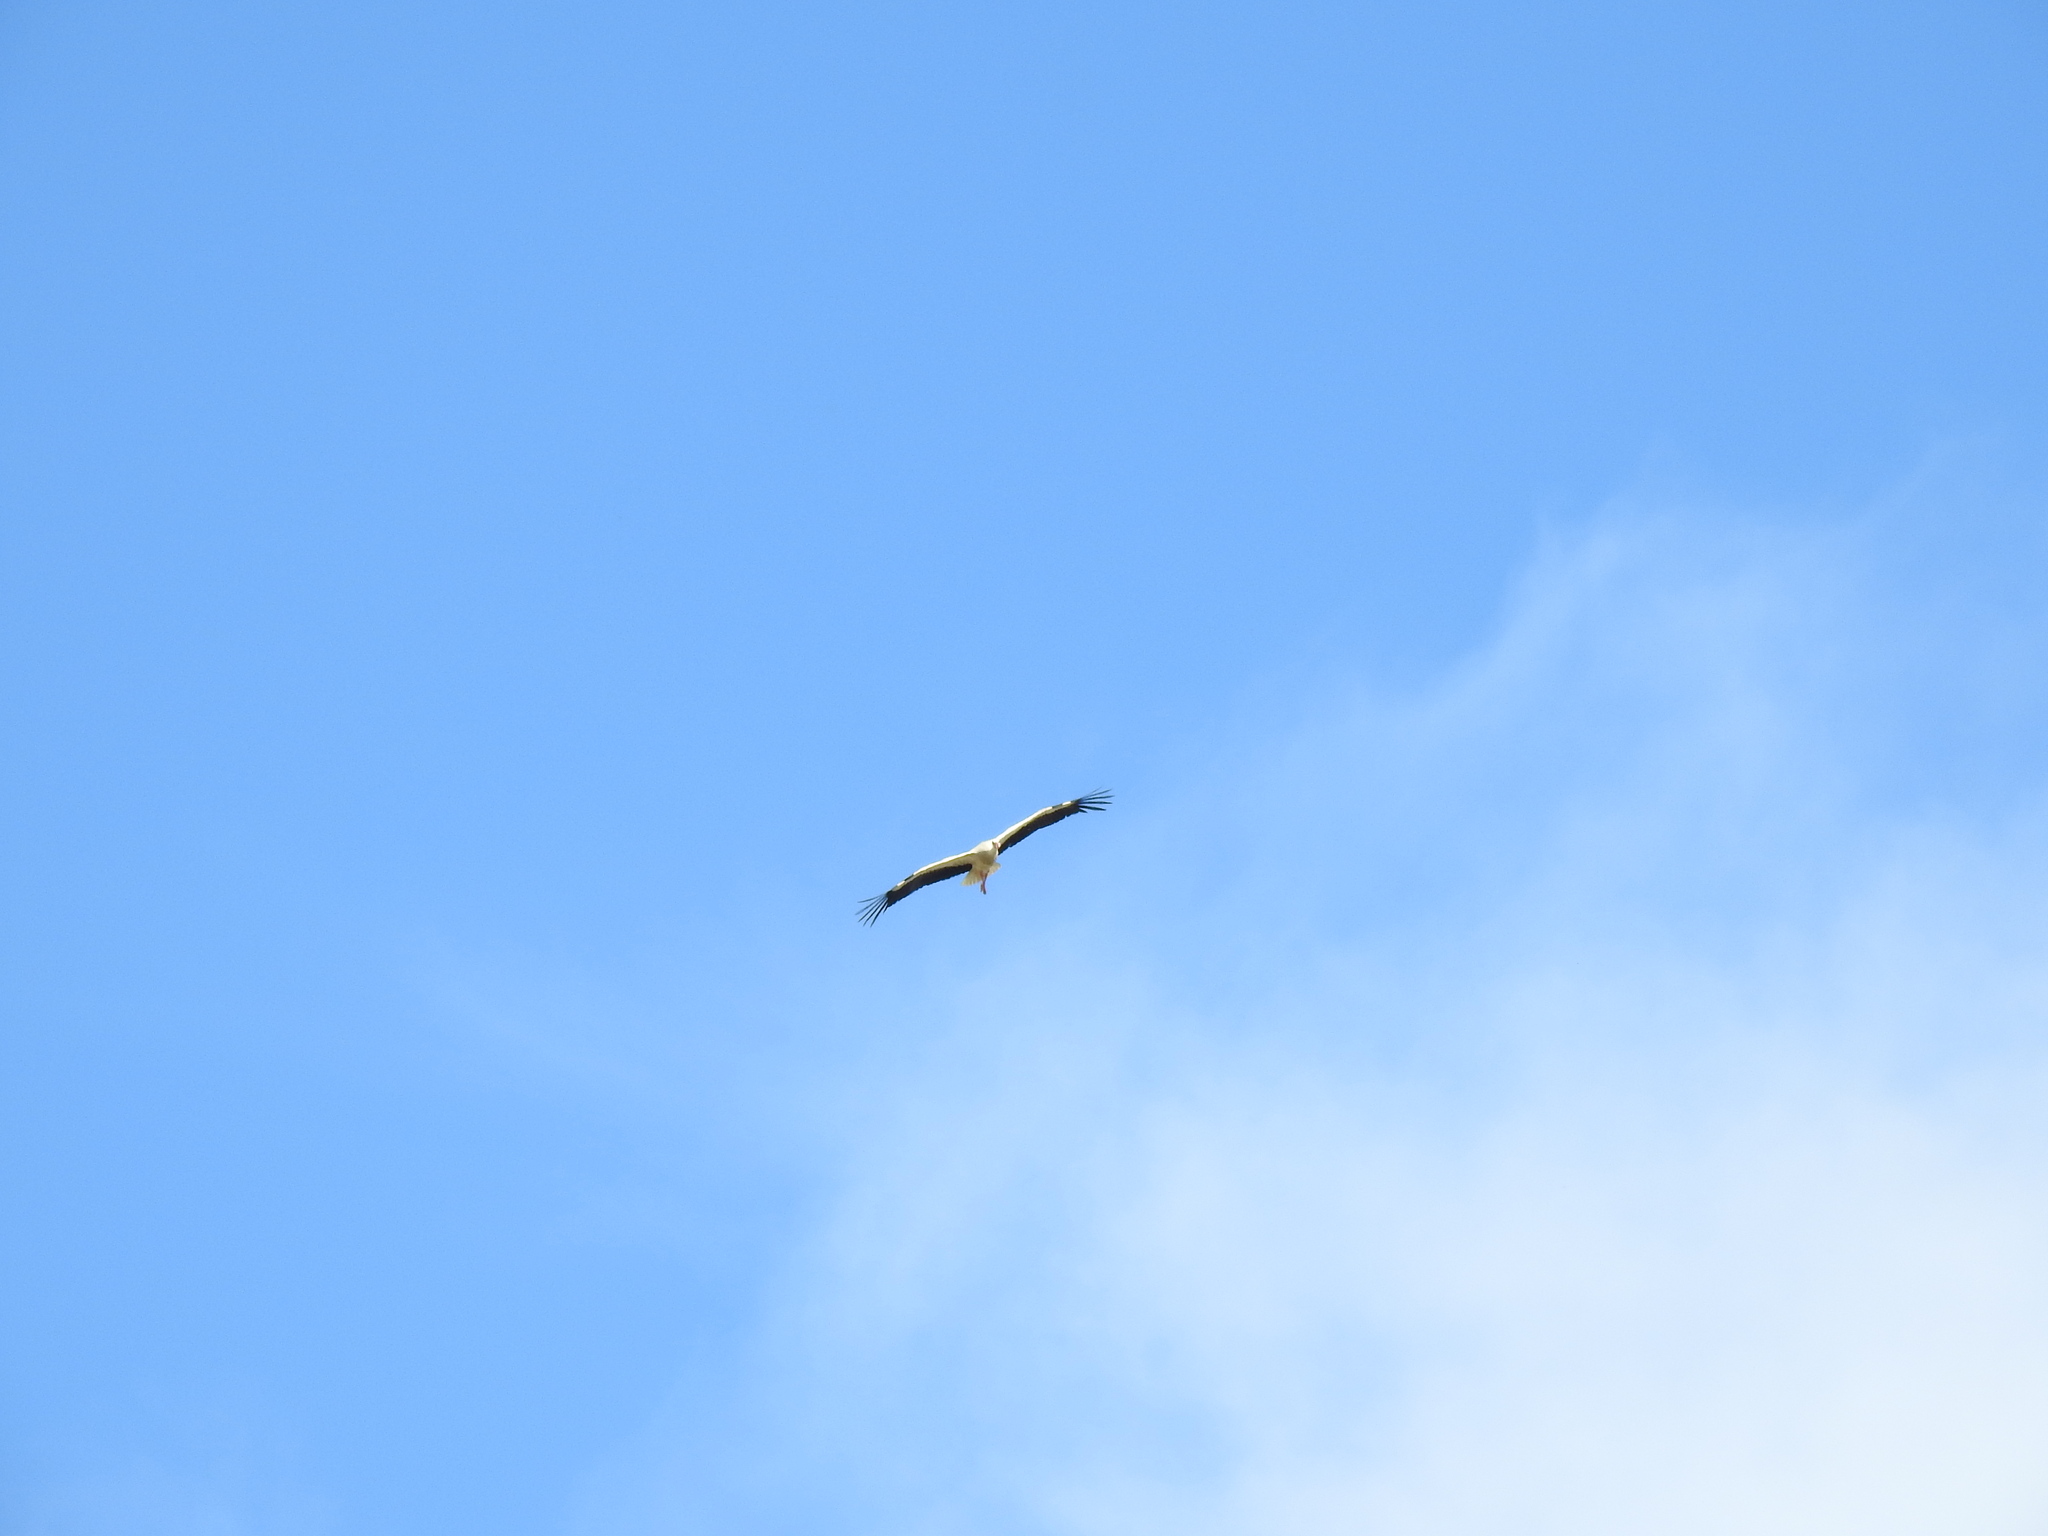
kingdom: Animalia
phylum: Chordata
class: Aves
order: Ciconiiformes
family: Ciconiidae
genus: Ciconia
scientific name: Ciconia ciconia
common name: White stork
